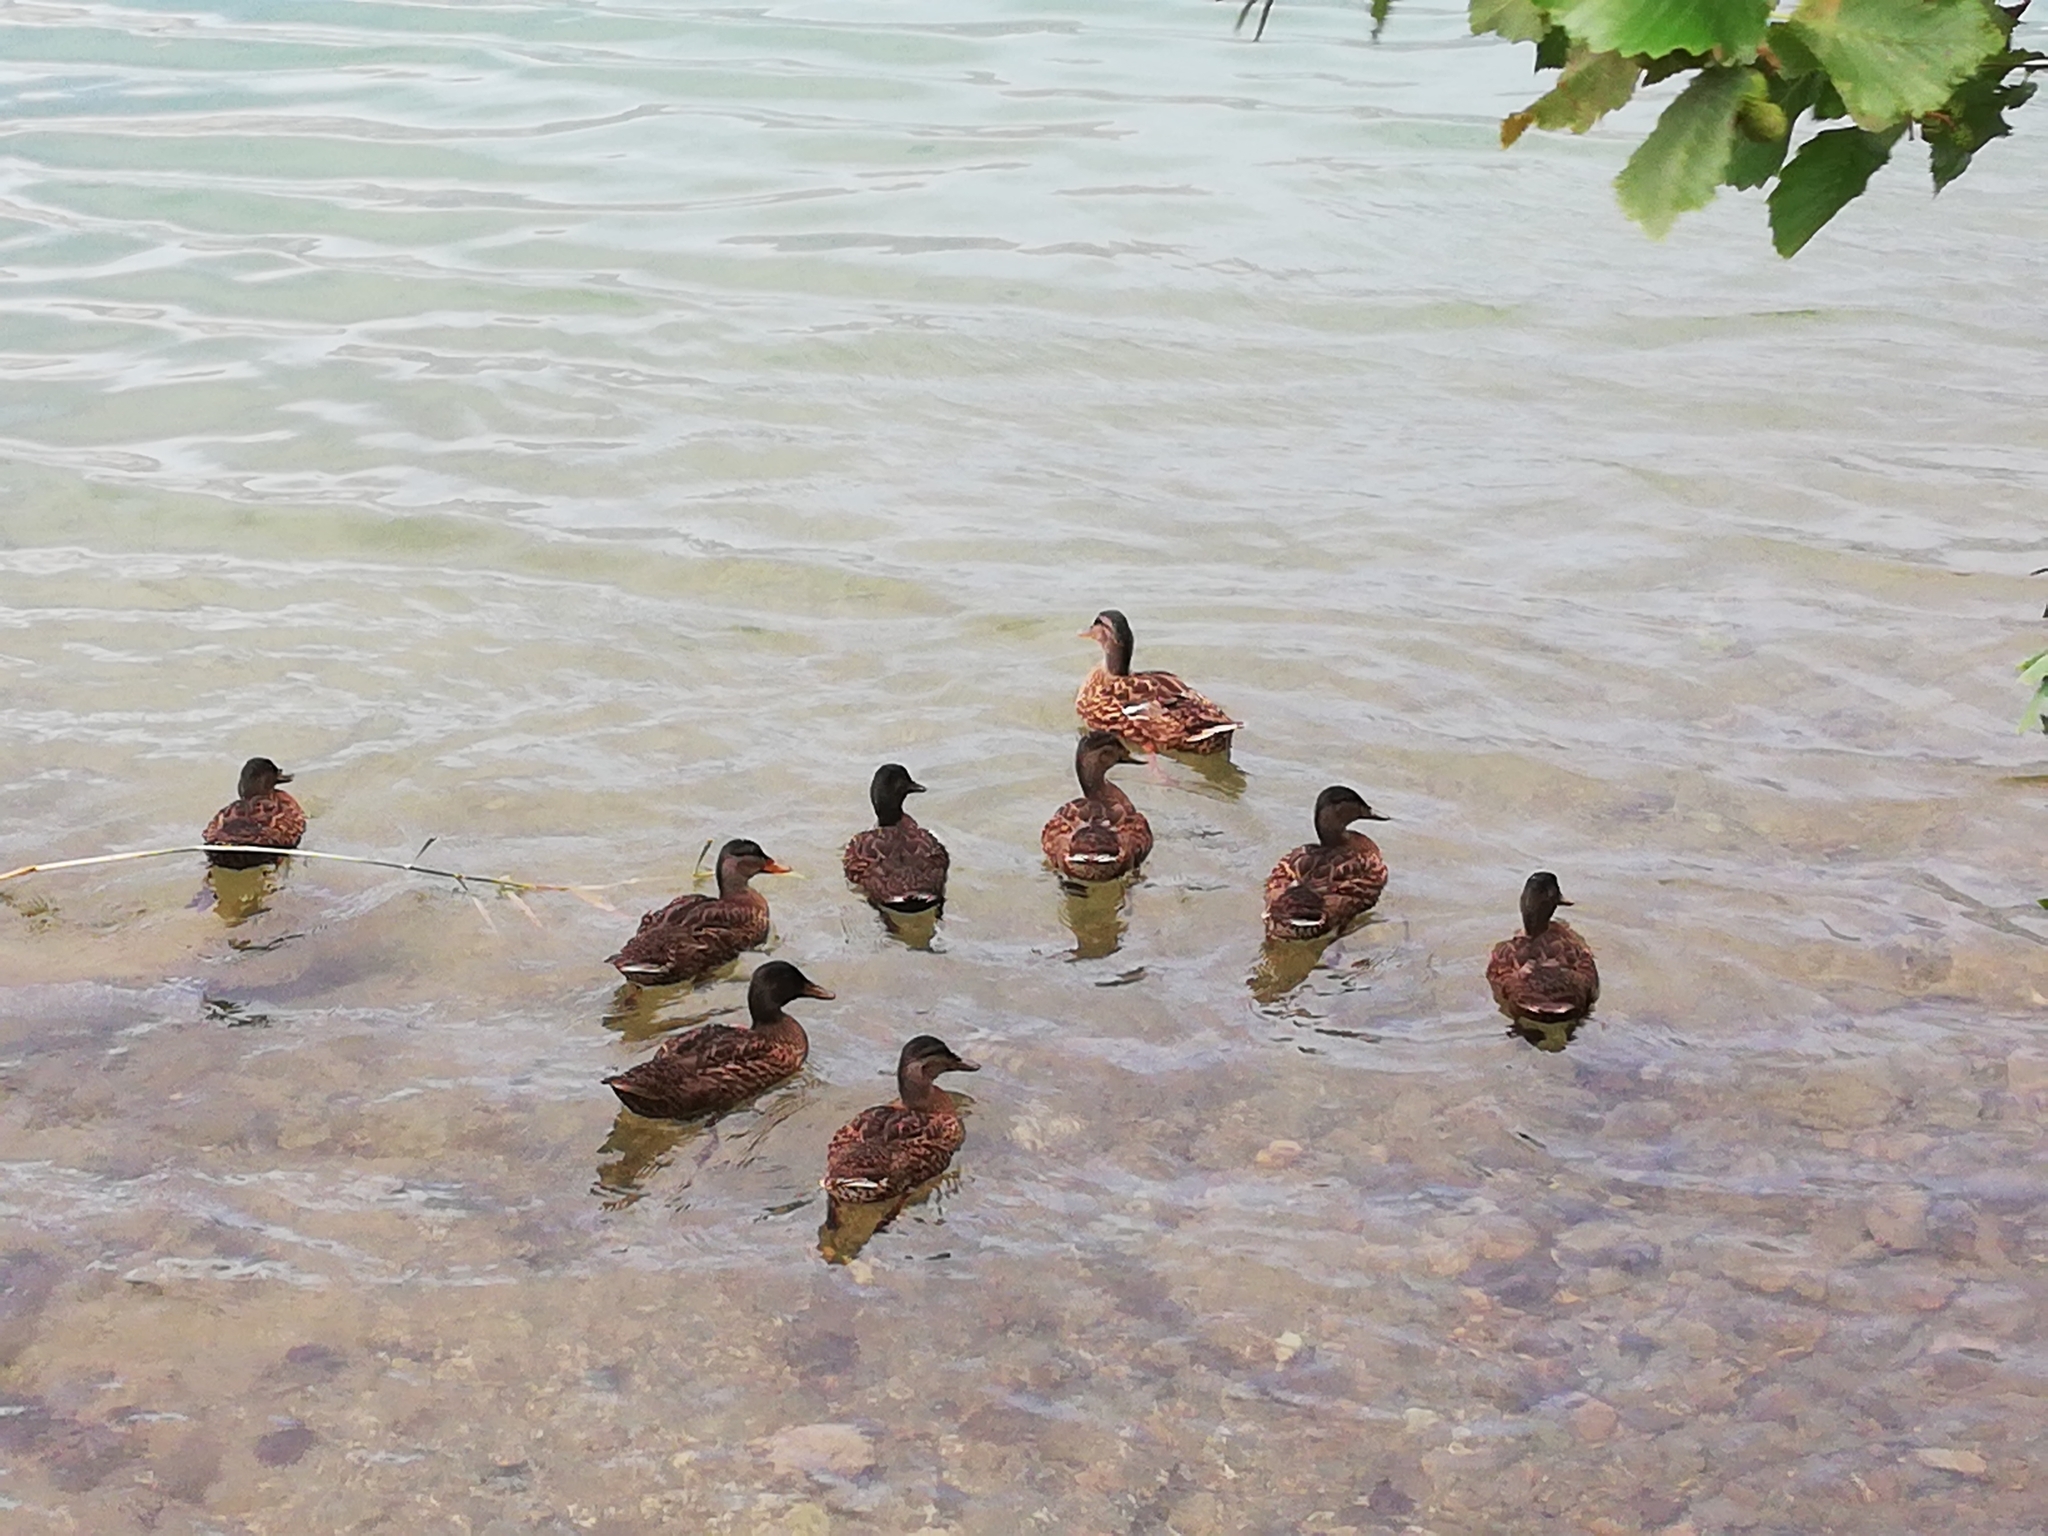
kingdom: Animalia
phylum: Chordata
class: Aves
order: Anseriformes
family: Anatidae
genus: Anas
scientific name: Anas platyrhynchos
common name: Mallard
